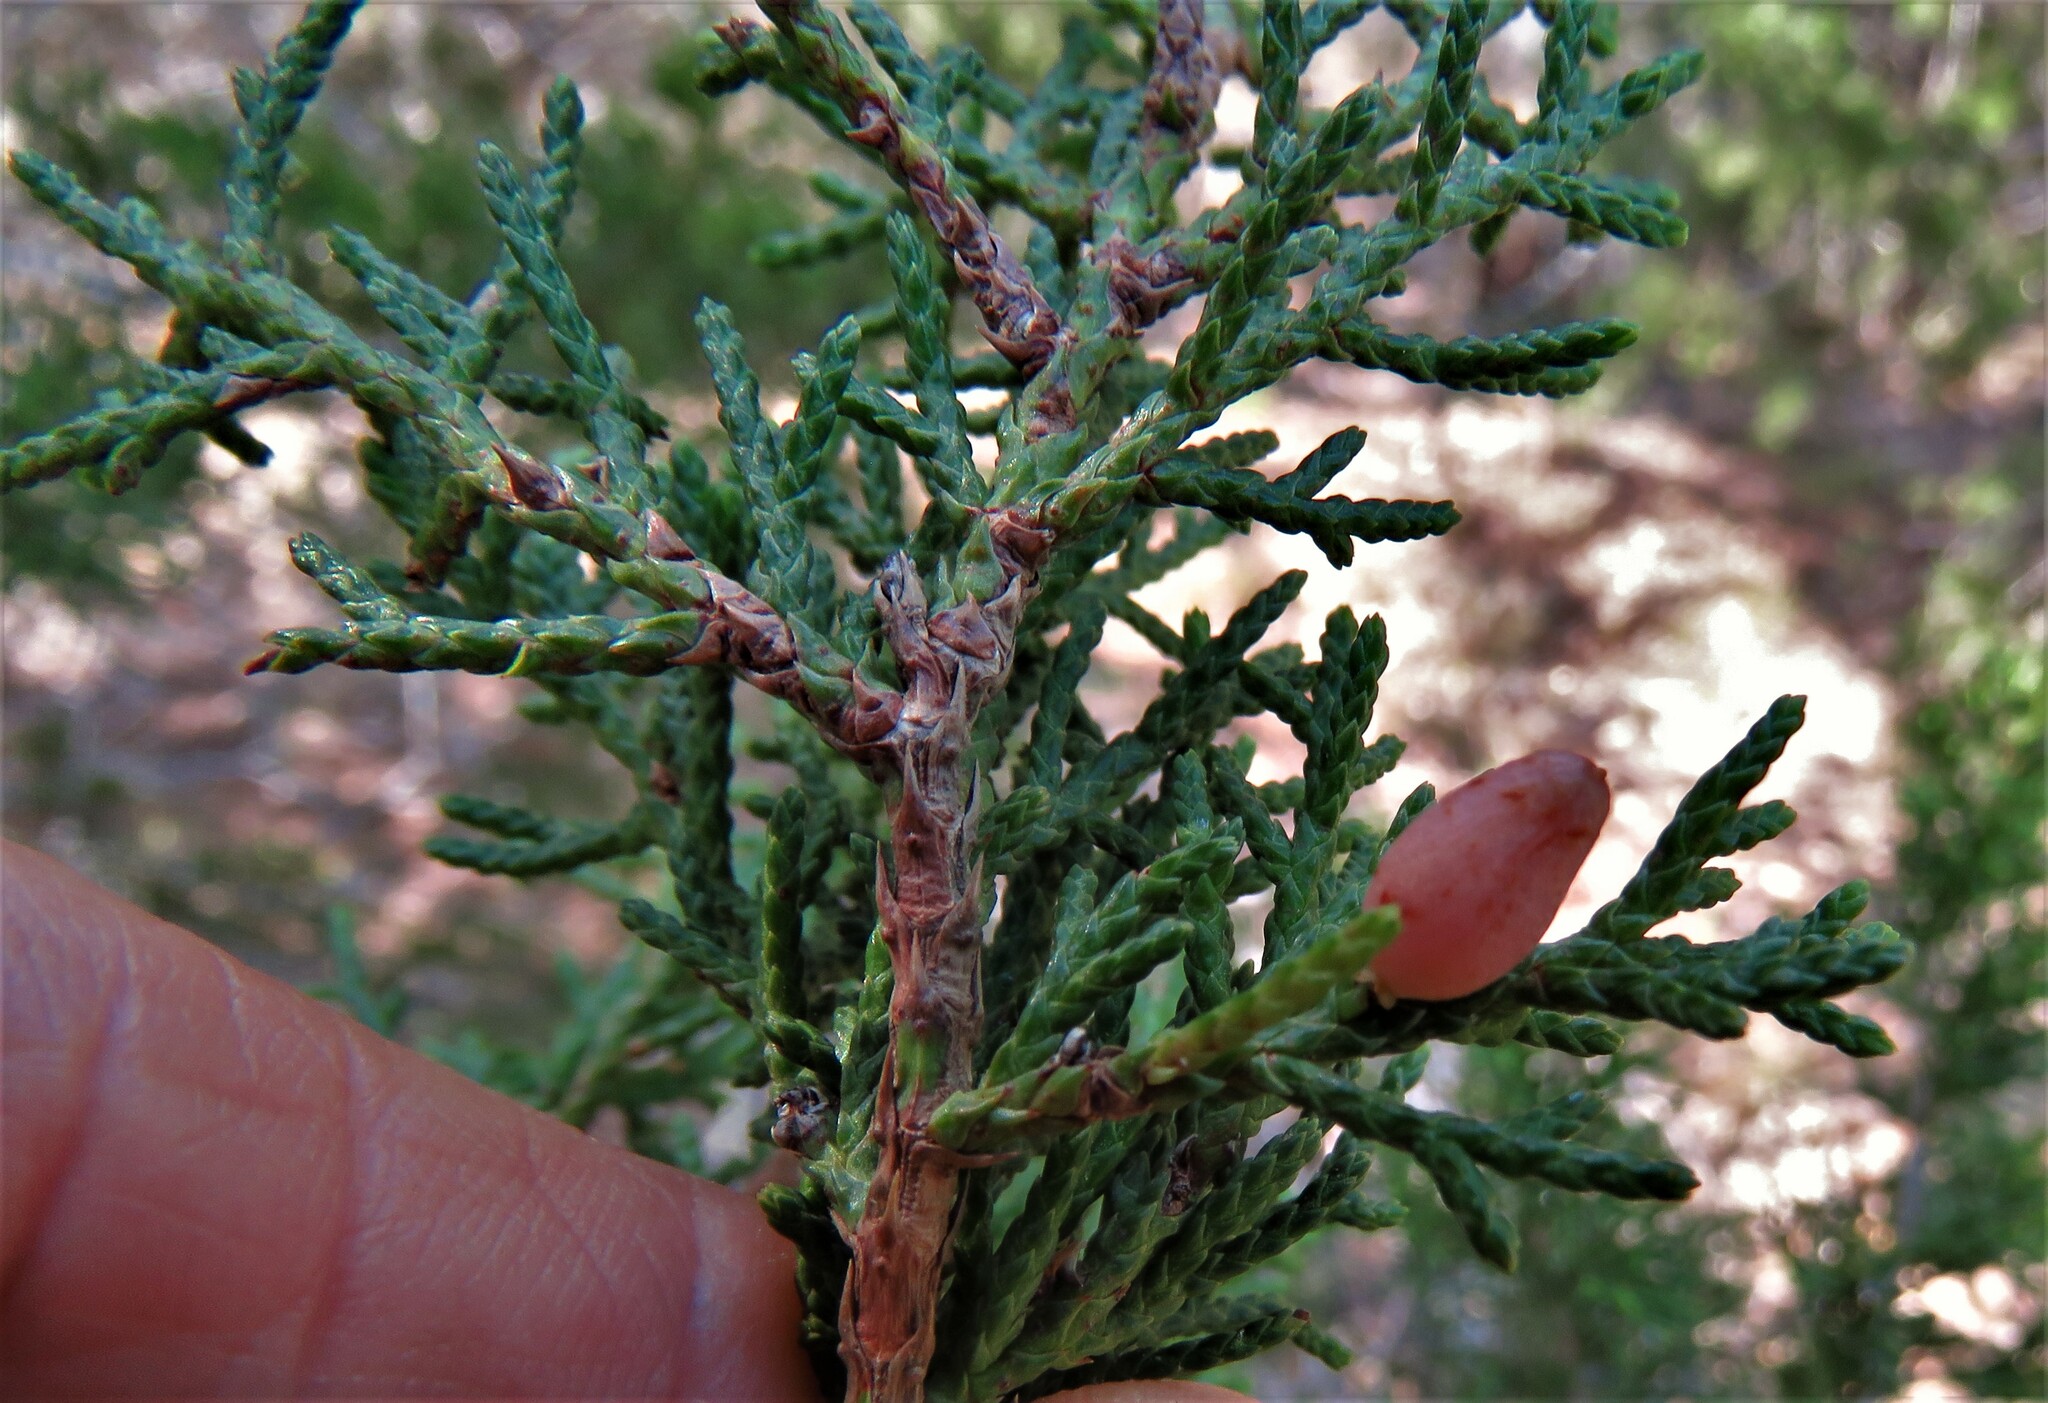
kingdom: Plantae
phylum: Tracheophyta
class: Pinopsida
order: Pinales
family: Cupressaceae
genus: Juniperus
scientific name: Juniperus ashei
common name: Mexican juniper
